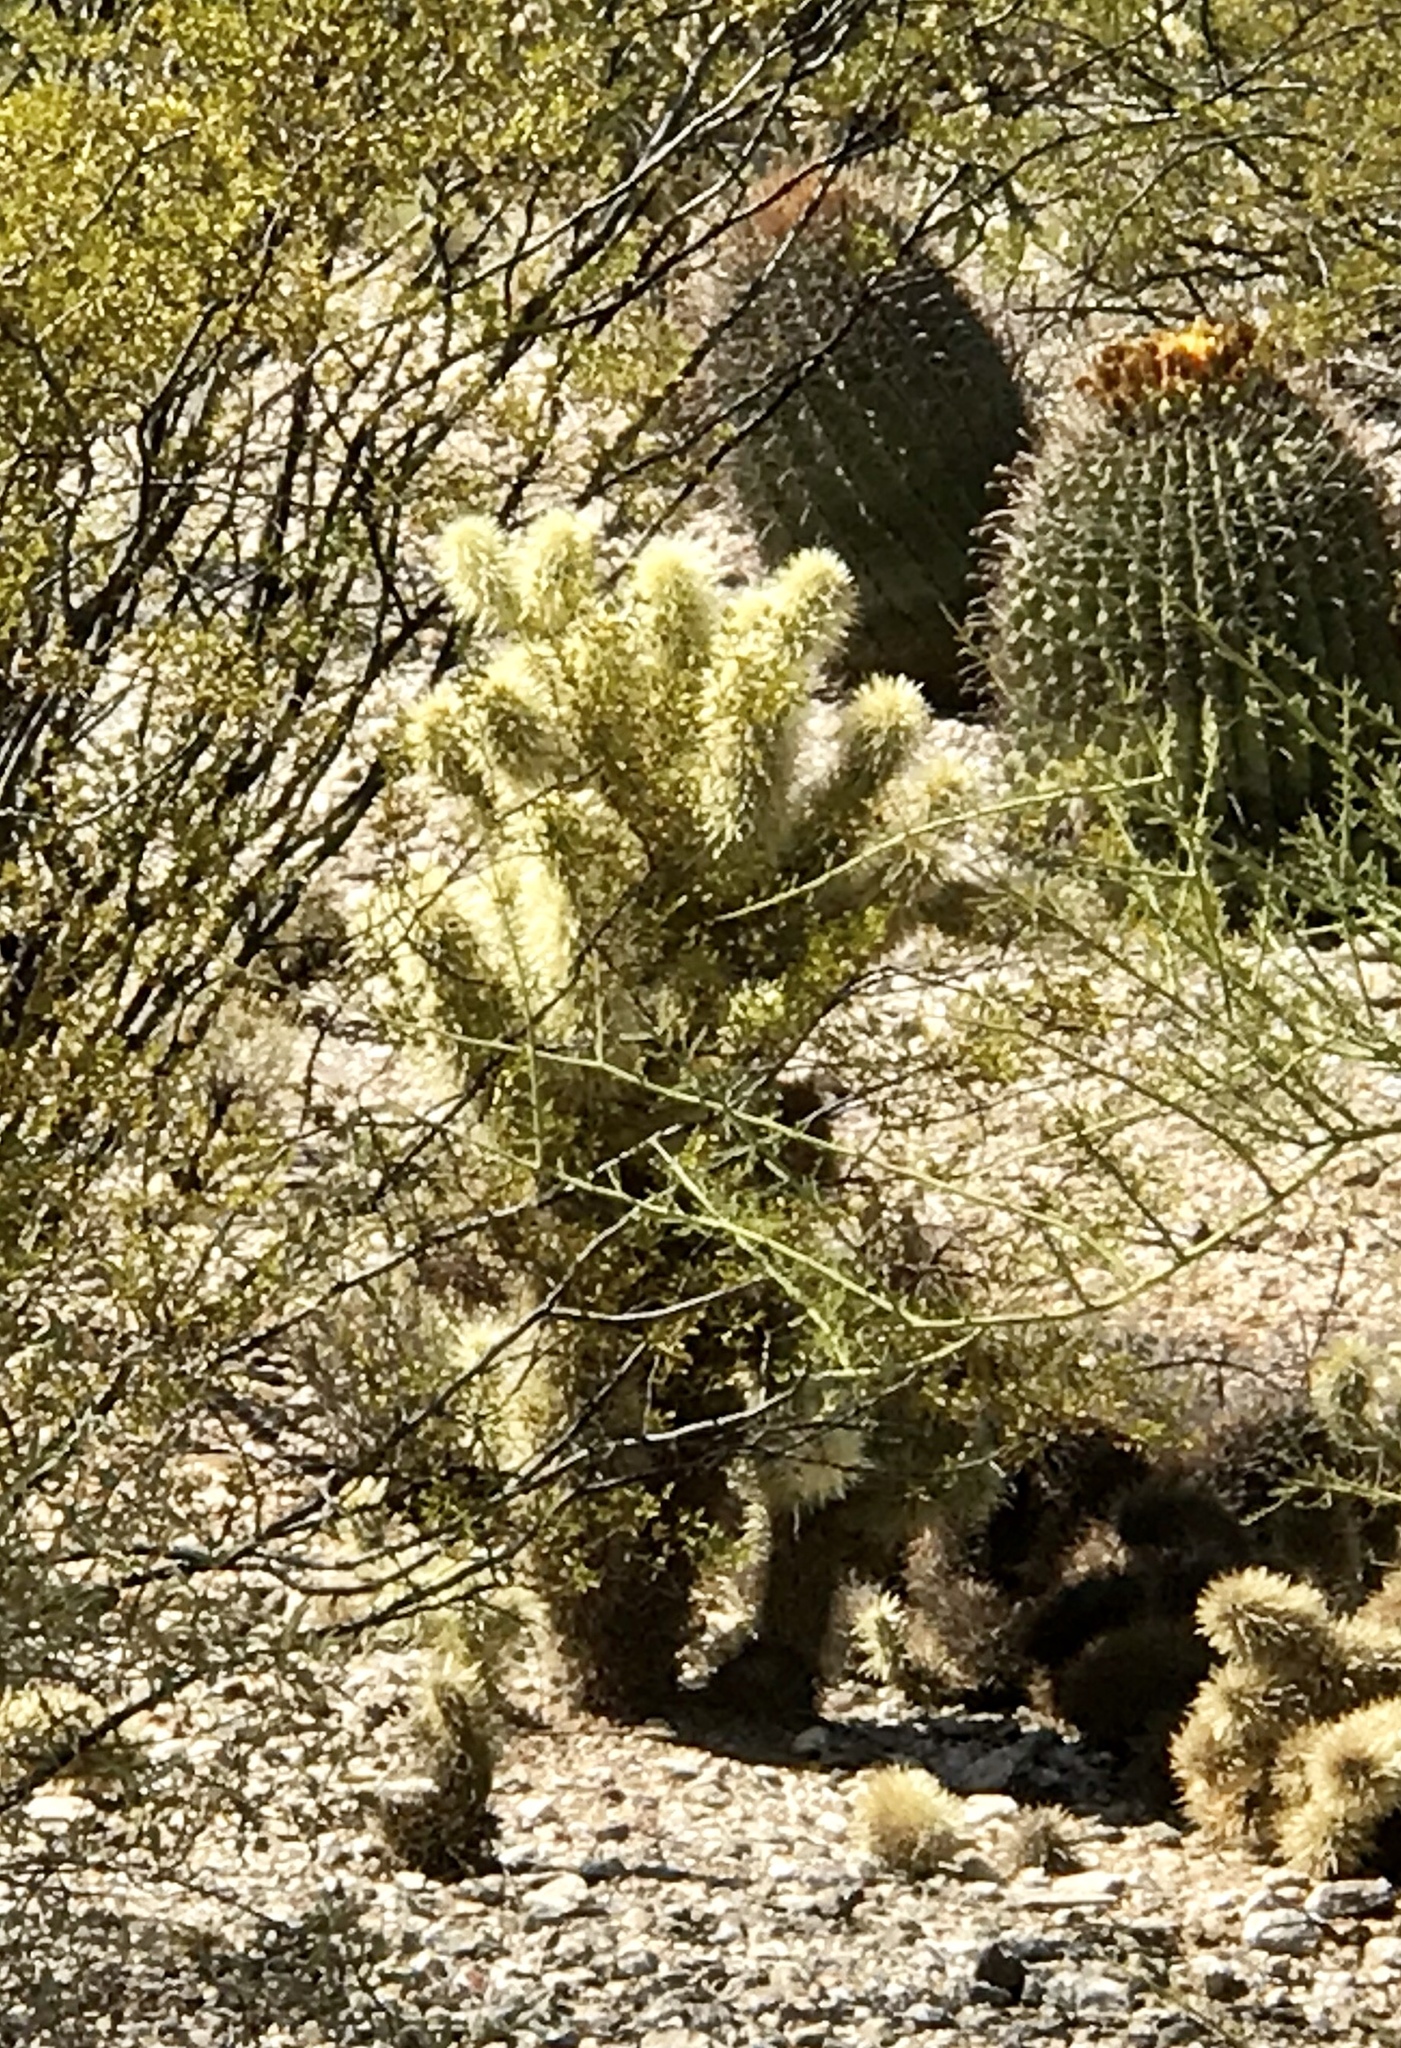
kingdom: Plantae
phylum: Tracheophyta
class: Magnoliopsida
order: Caryophyllales
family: Cactaceae
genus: Cylindropuntia
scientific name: Cylindropuntia fosbergii
